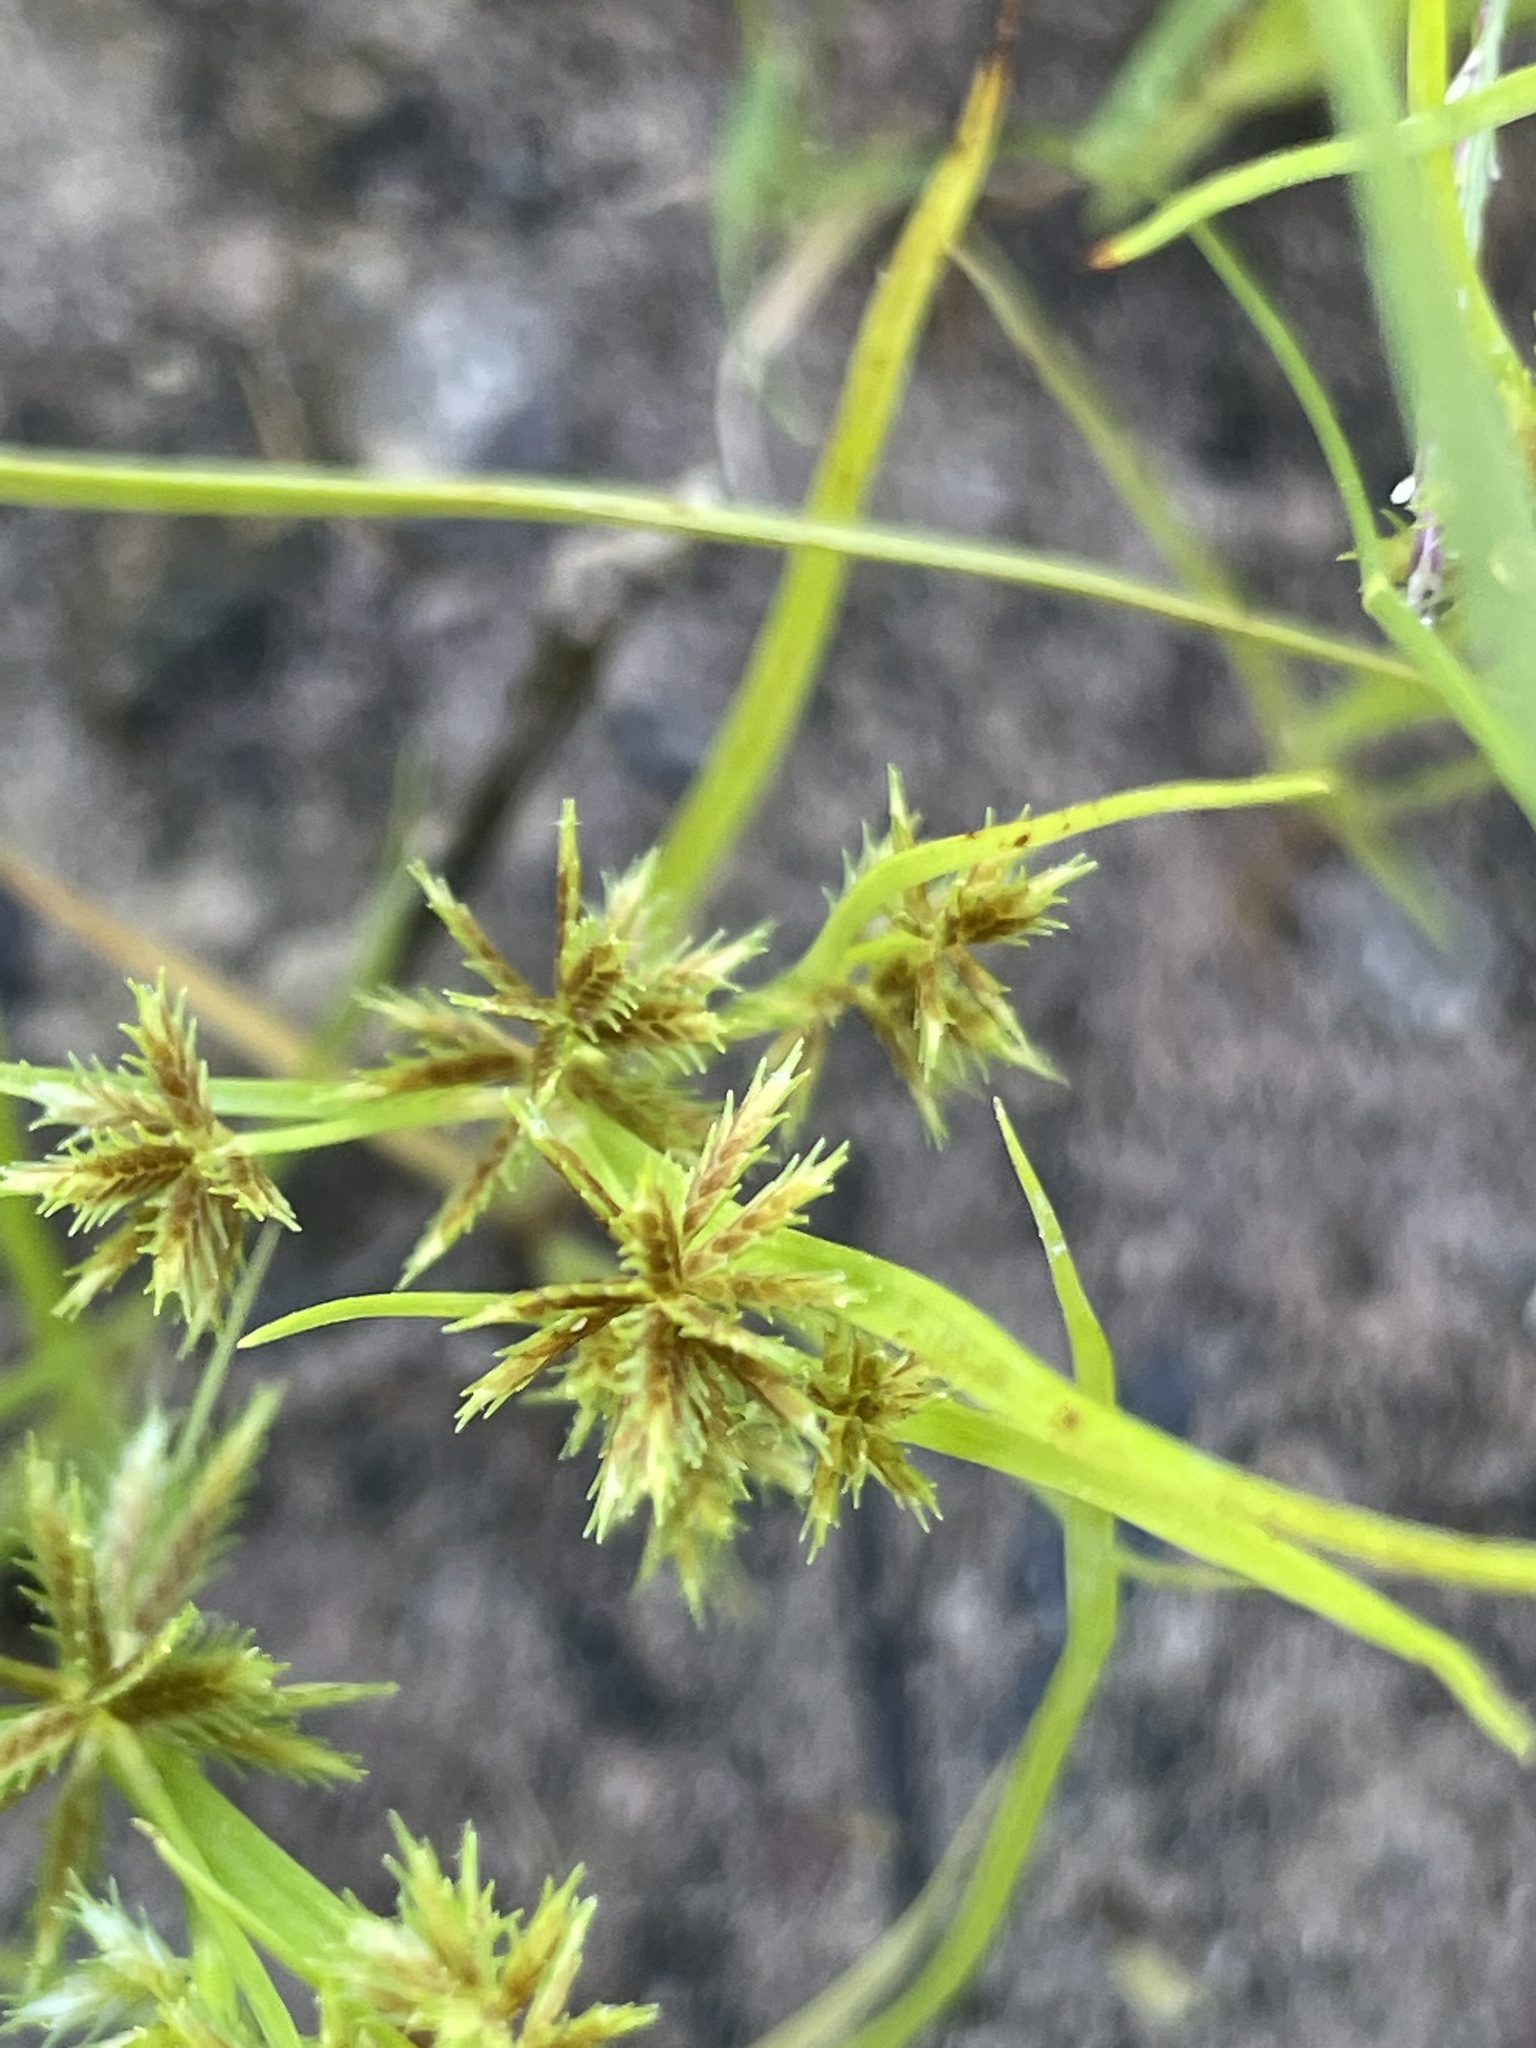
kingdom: Plantae
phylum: Tracheophyta
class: Liliopsida
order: Poales
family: Cyperaceae
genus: Cyperus
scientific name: Cyperus squarrosus
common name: Awned cyperus
